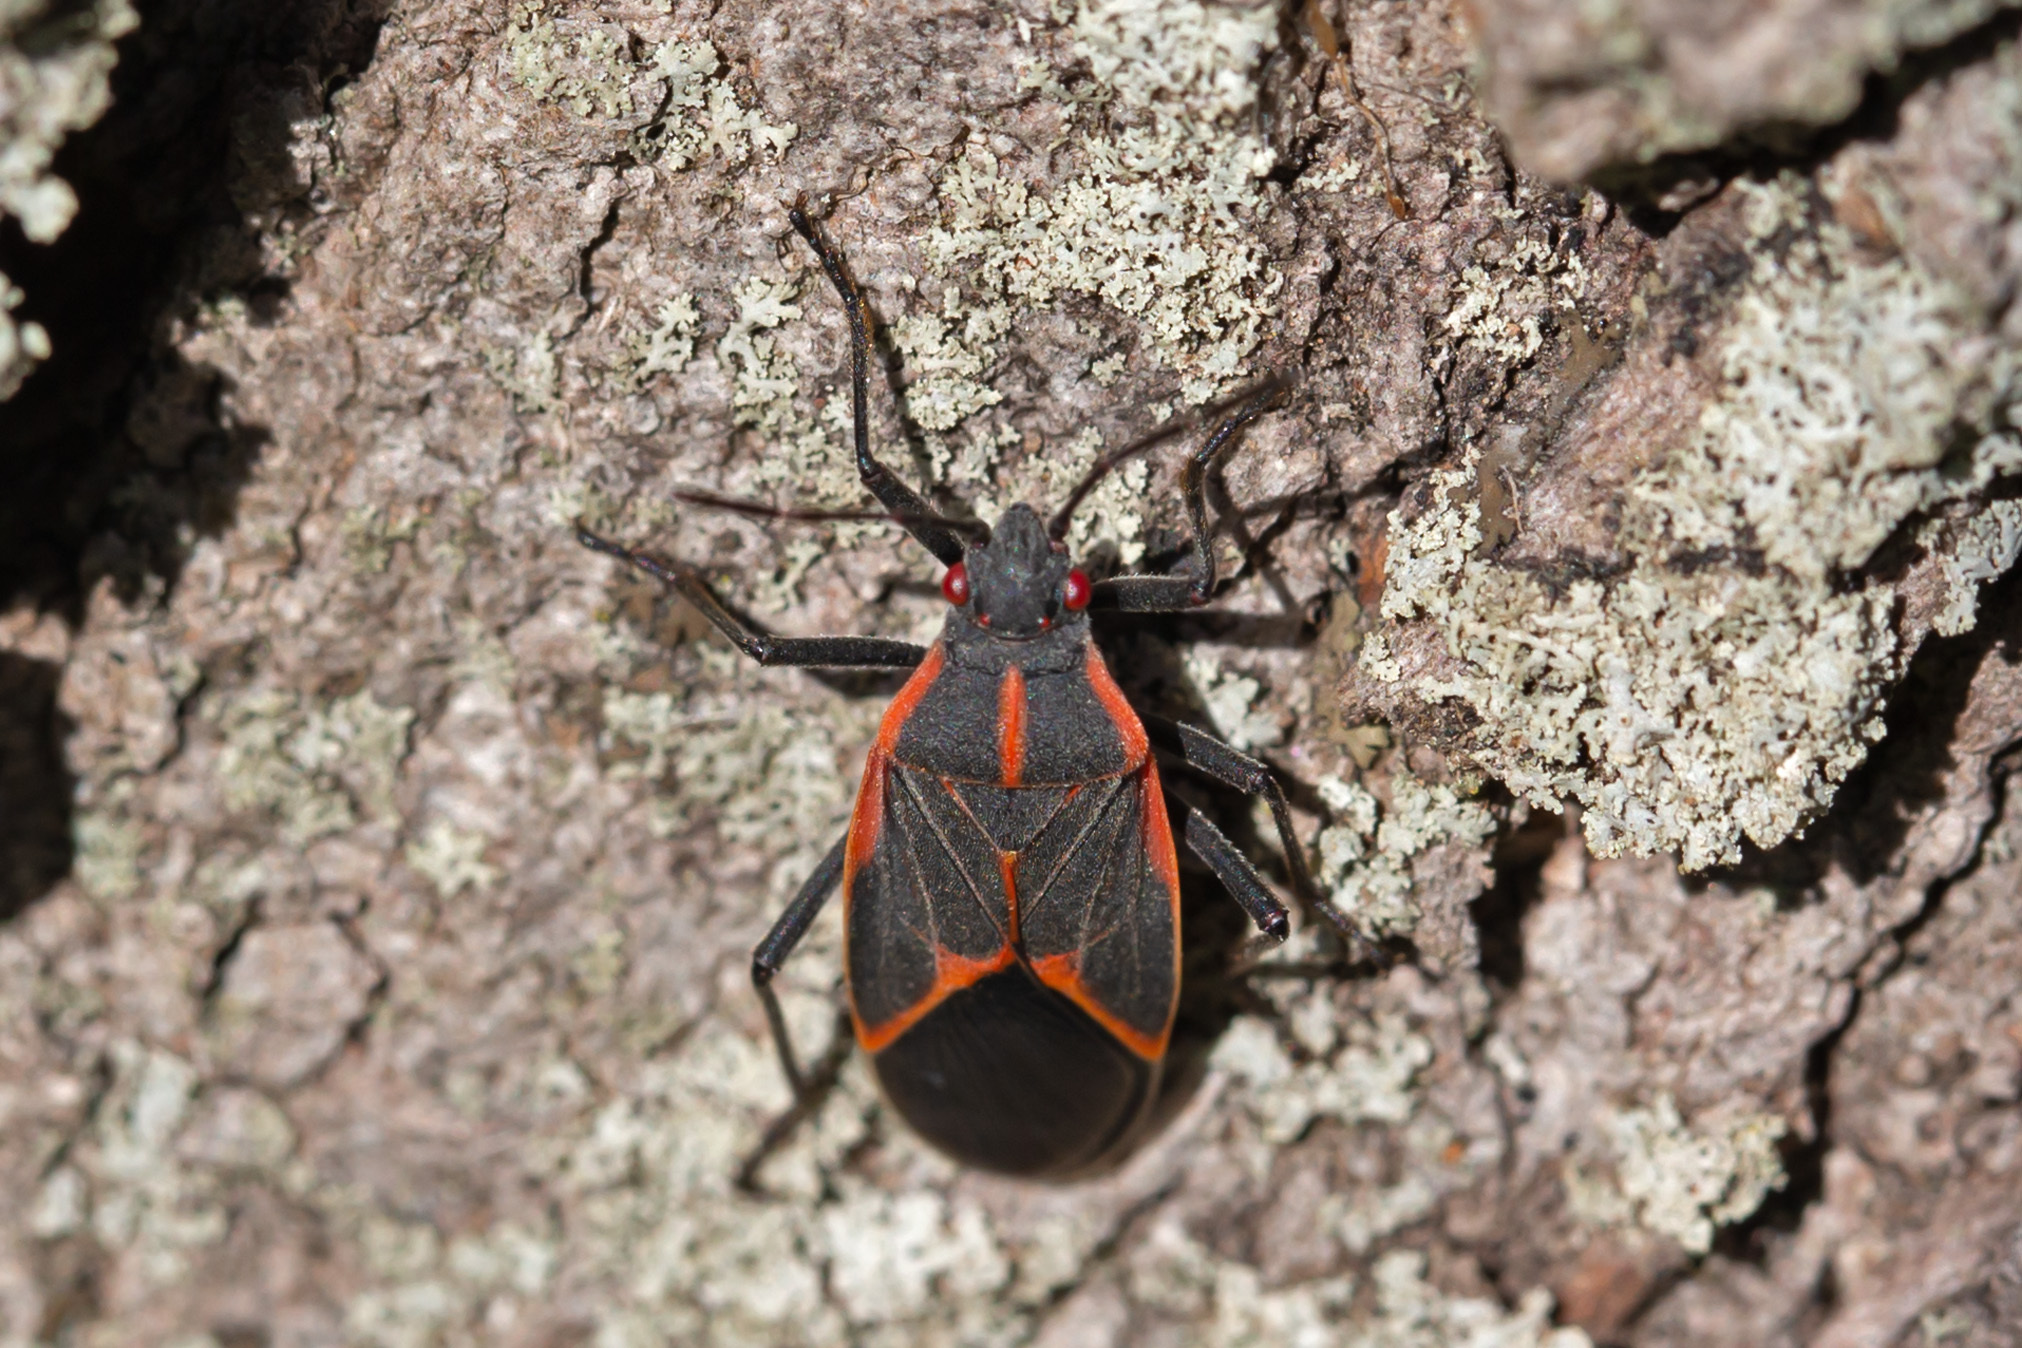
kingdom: Animalia
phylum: Arthropoda
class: Insecta
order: Hemiptera
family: Rhopalidae
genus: Boisea
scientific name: Boisea trivittata
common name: Boxelder bug
